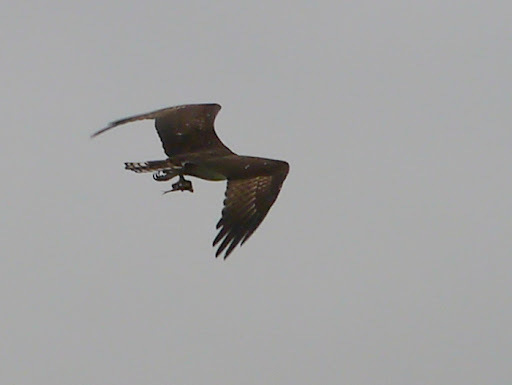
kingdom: Animalia
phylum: Chordata
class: Aves
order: Accipitriformes
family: Pandionidae
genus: Pandion
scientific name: Pandion haliaetus
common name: Osprey
